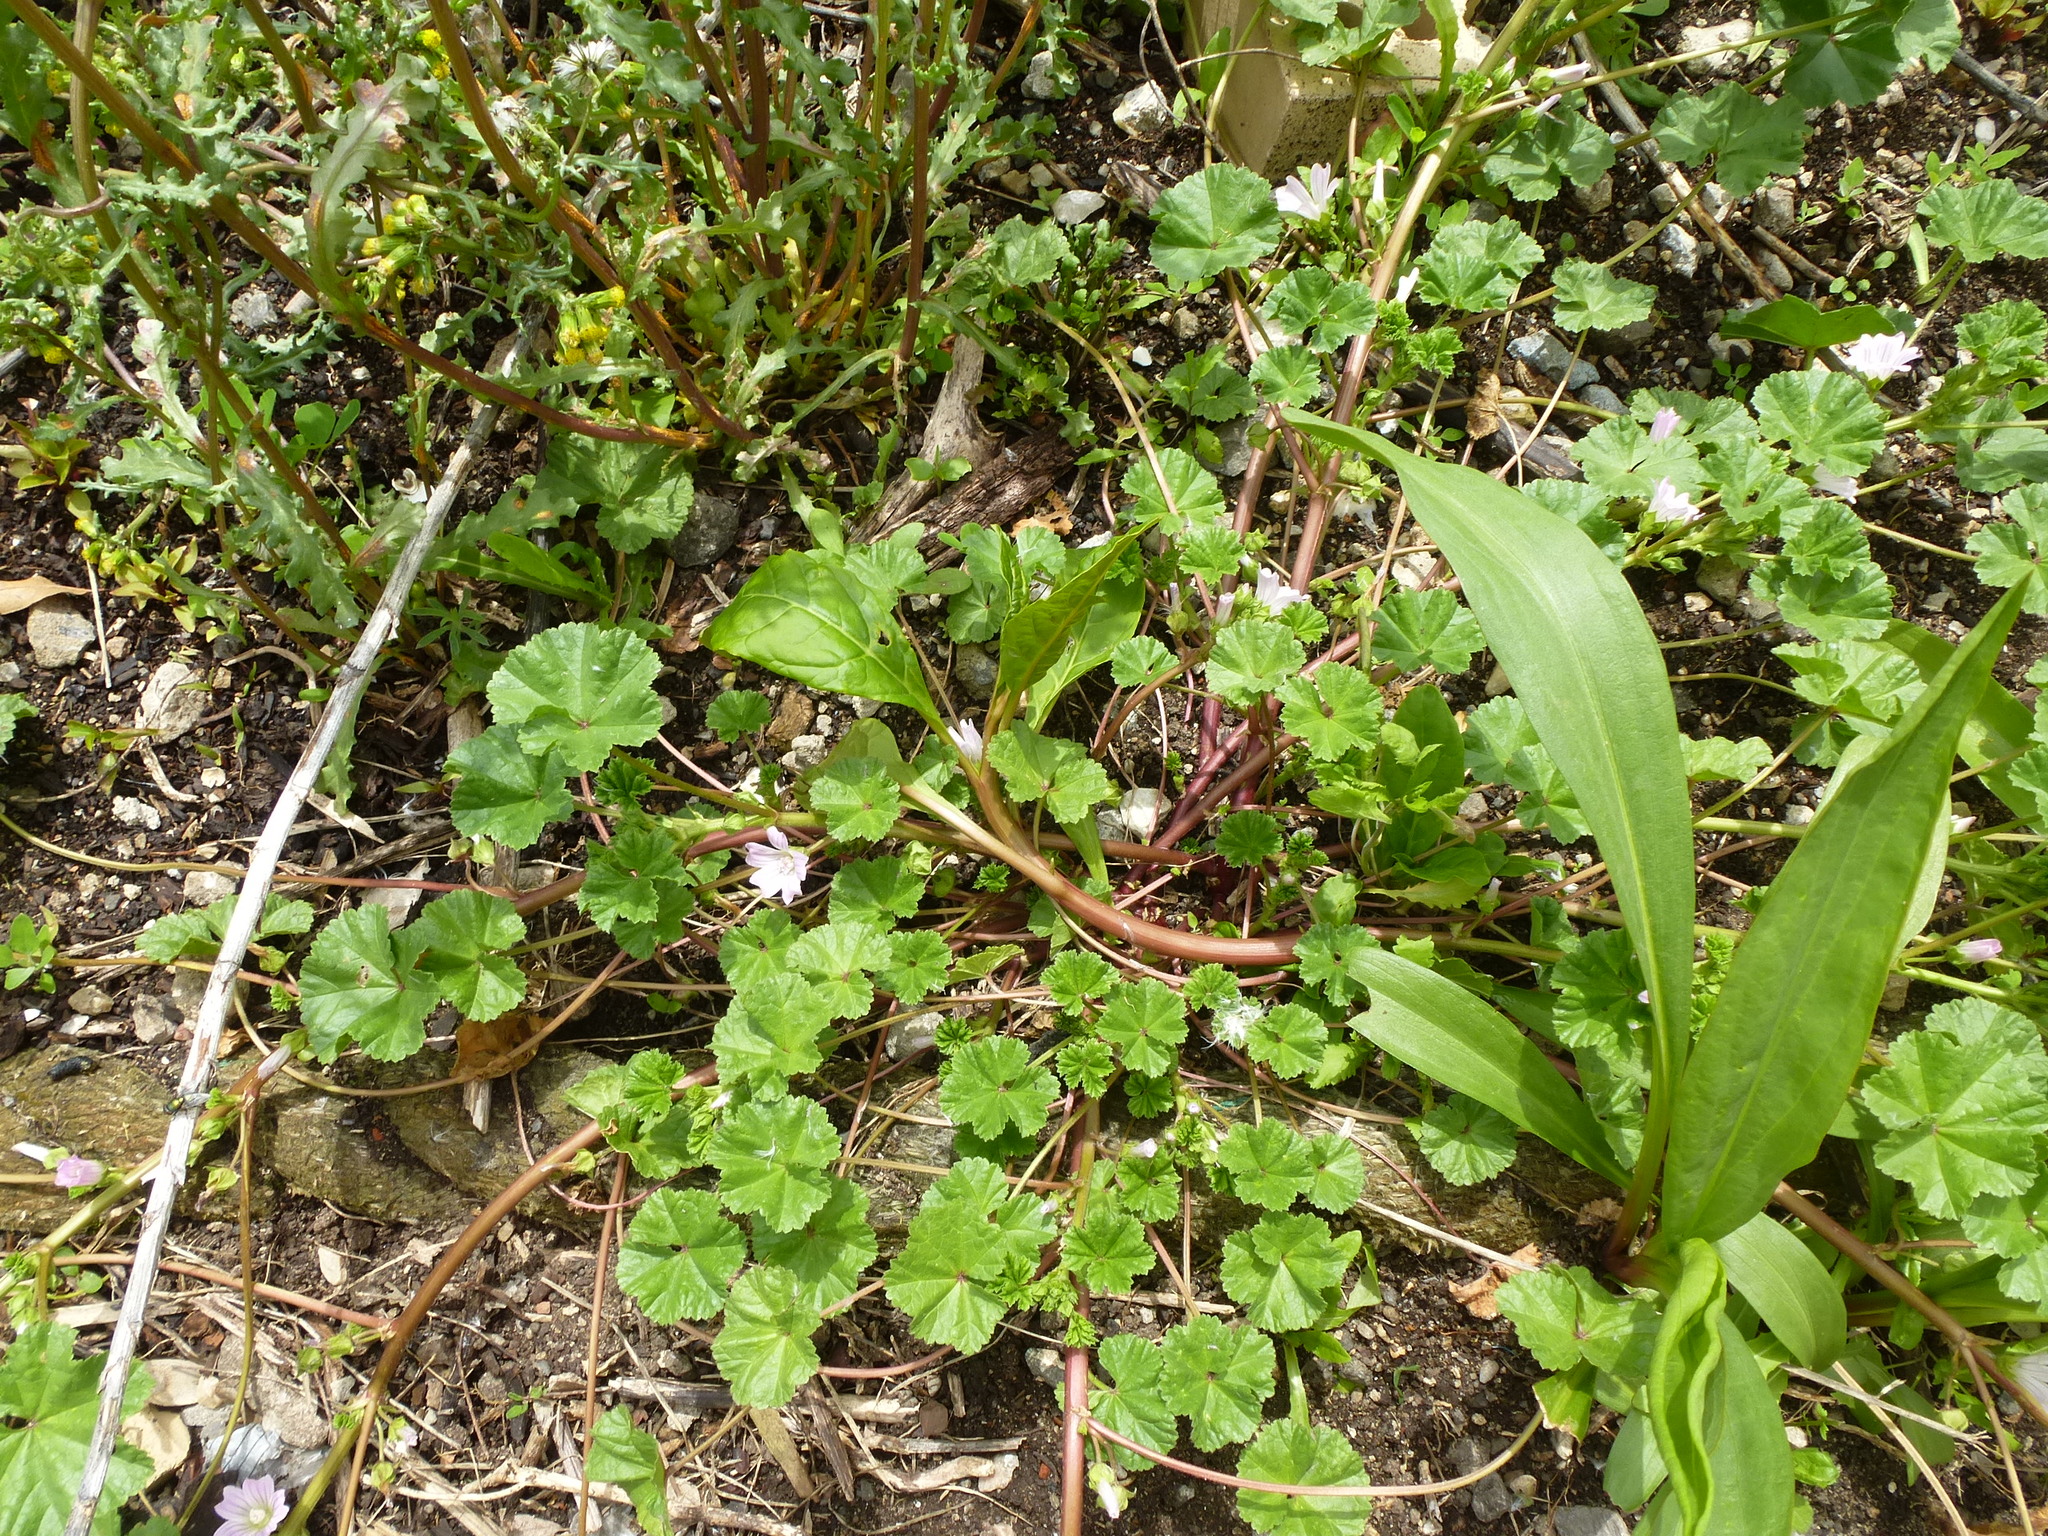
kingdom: Plantae
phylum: Tracheophyta
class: Magnoliopsida
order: Malvales
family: Malvaceae
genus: Malva
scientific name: Malva neglecta
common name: Common mallow
